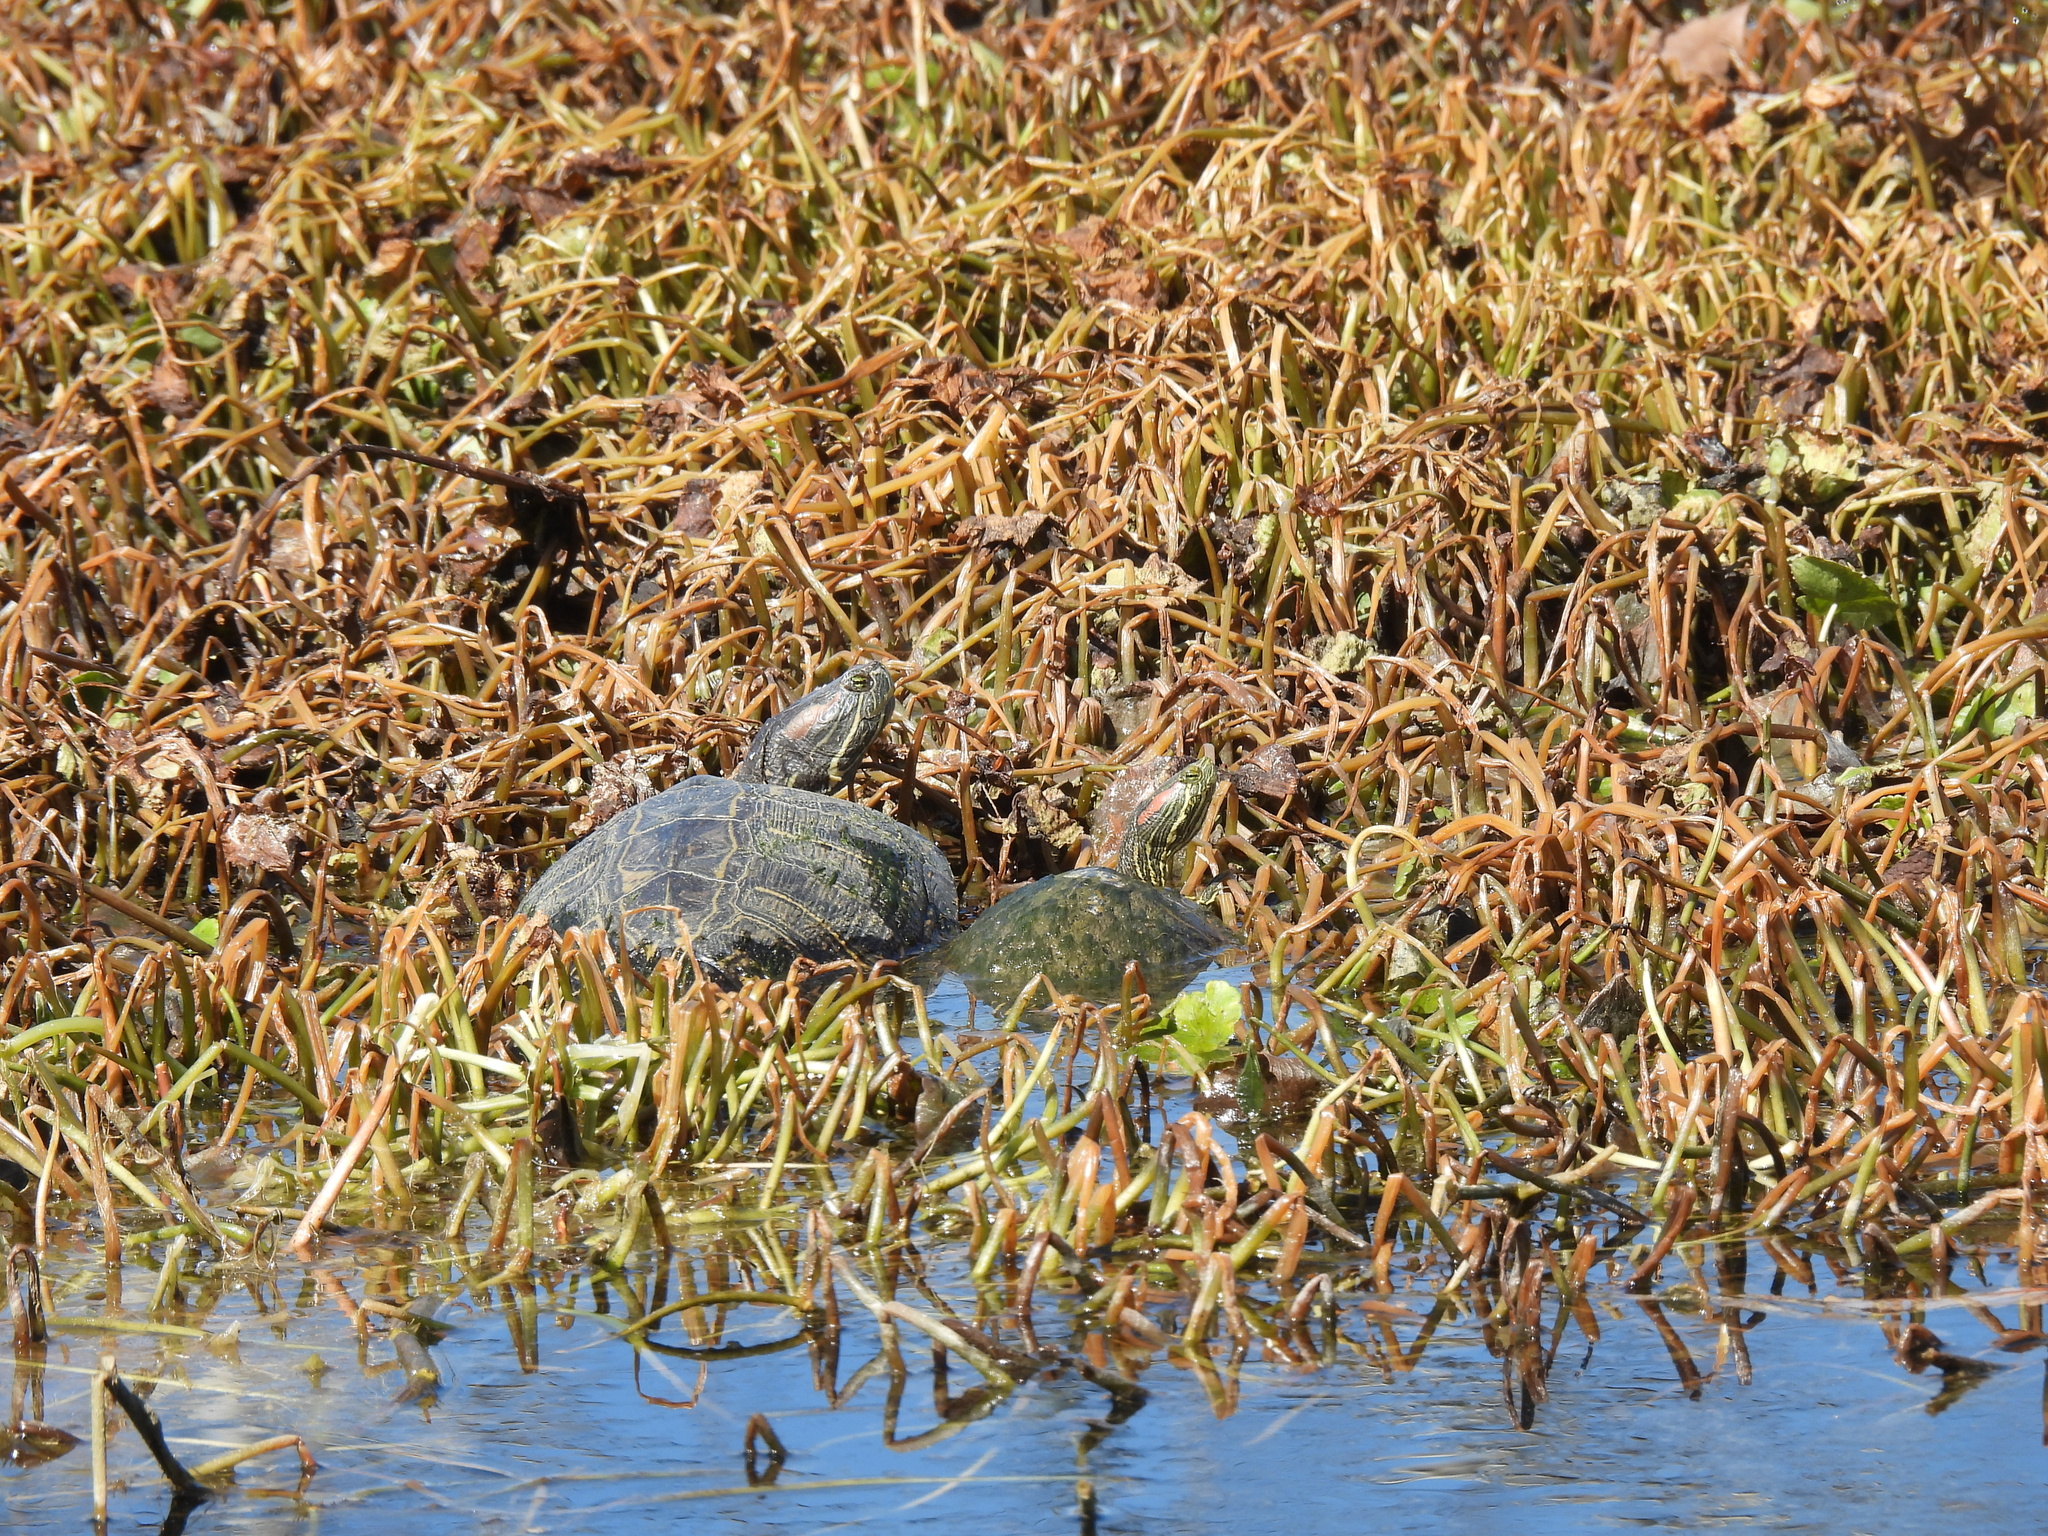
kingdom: Animalia
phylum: Chordata
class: Testudines
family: Emydidae
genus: Trachemys
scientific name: Trachemys scripta
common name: Slider
